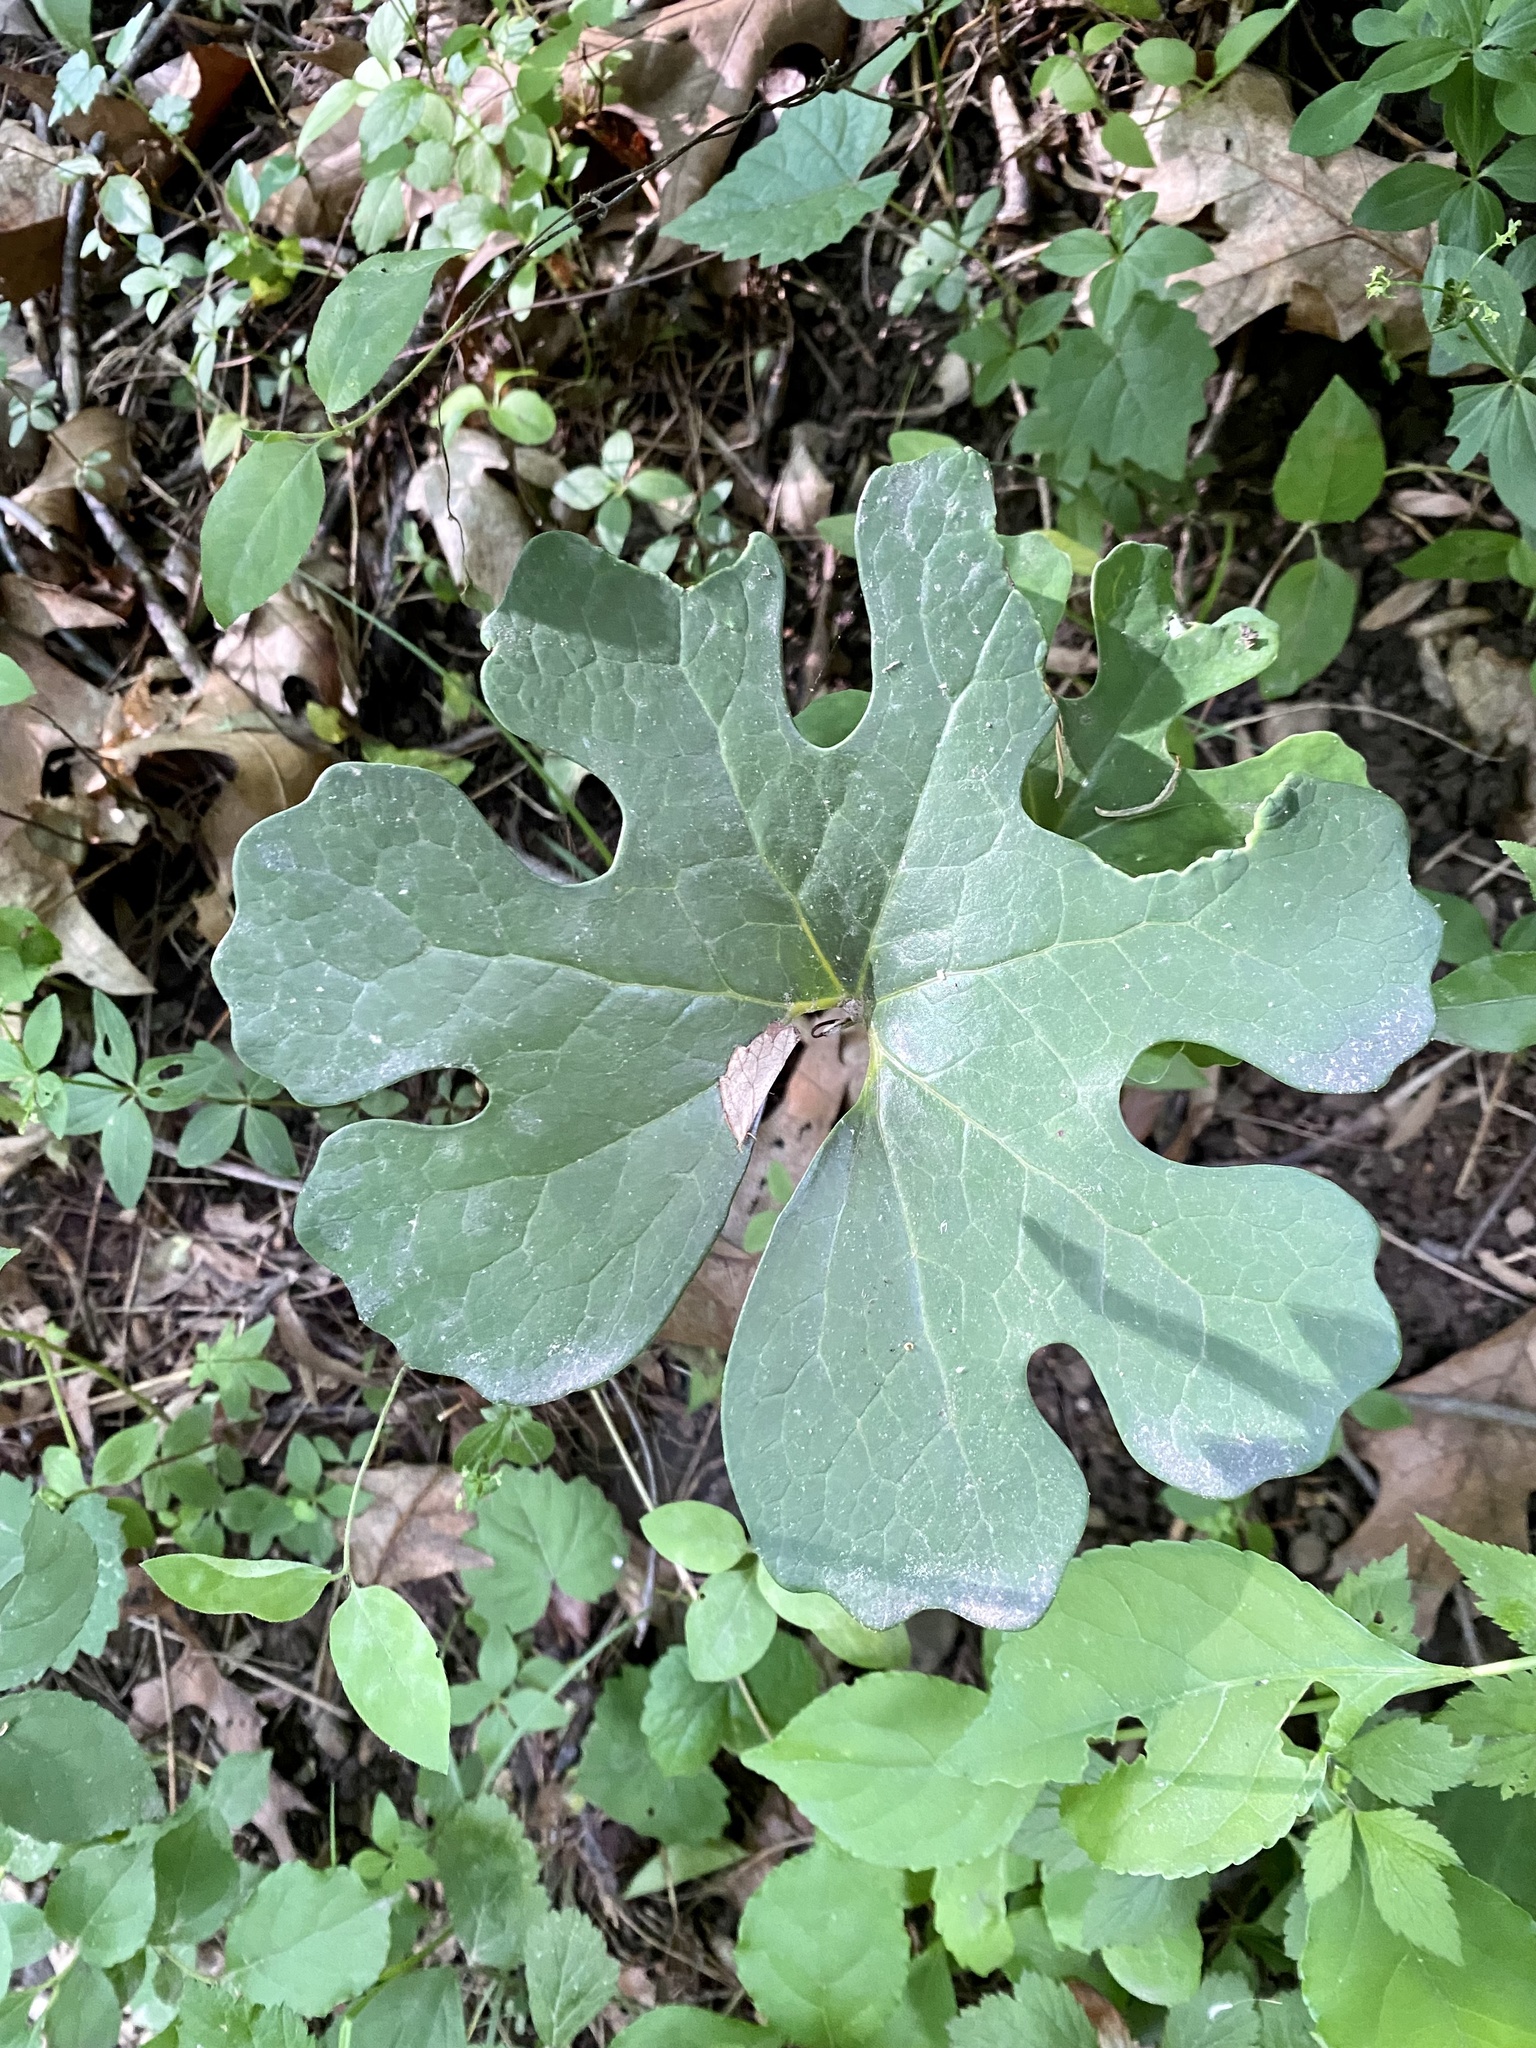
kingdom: Plantae
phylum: Tracheophyta
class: Magnoliopsida
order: Ranunculales
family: Papaveraceae
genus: Sanguinaria
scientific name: Sanguinaria canadensis
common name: Bloodroot
